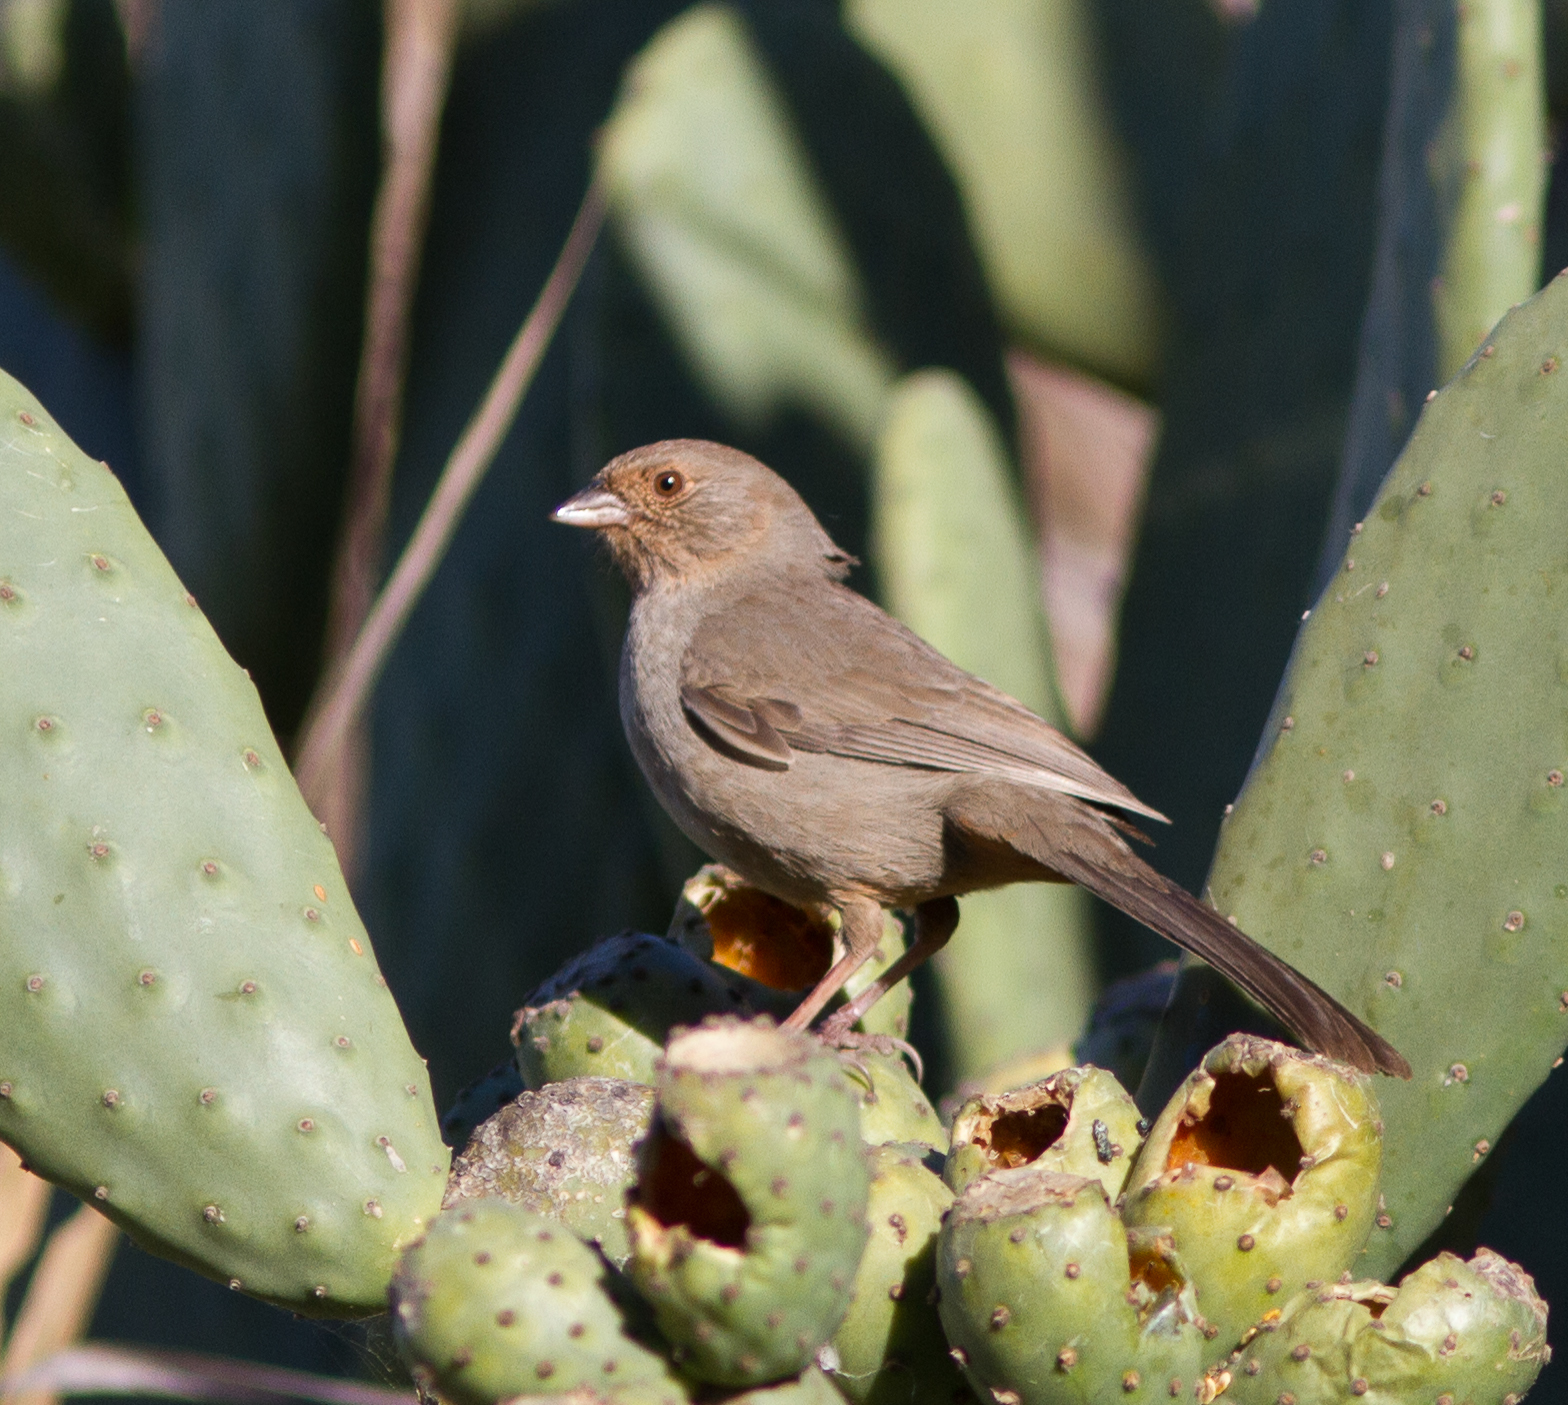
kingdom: Animalia
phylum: Chordata
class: Aves
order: Passeriformes
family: Passerellidae
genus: Melozone
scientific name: Melozone crissalis
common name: California towhee
